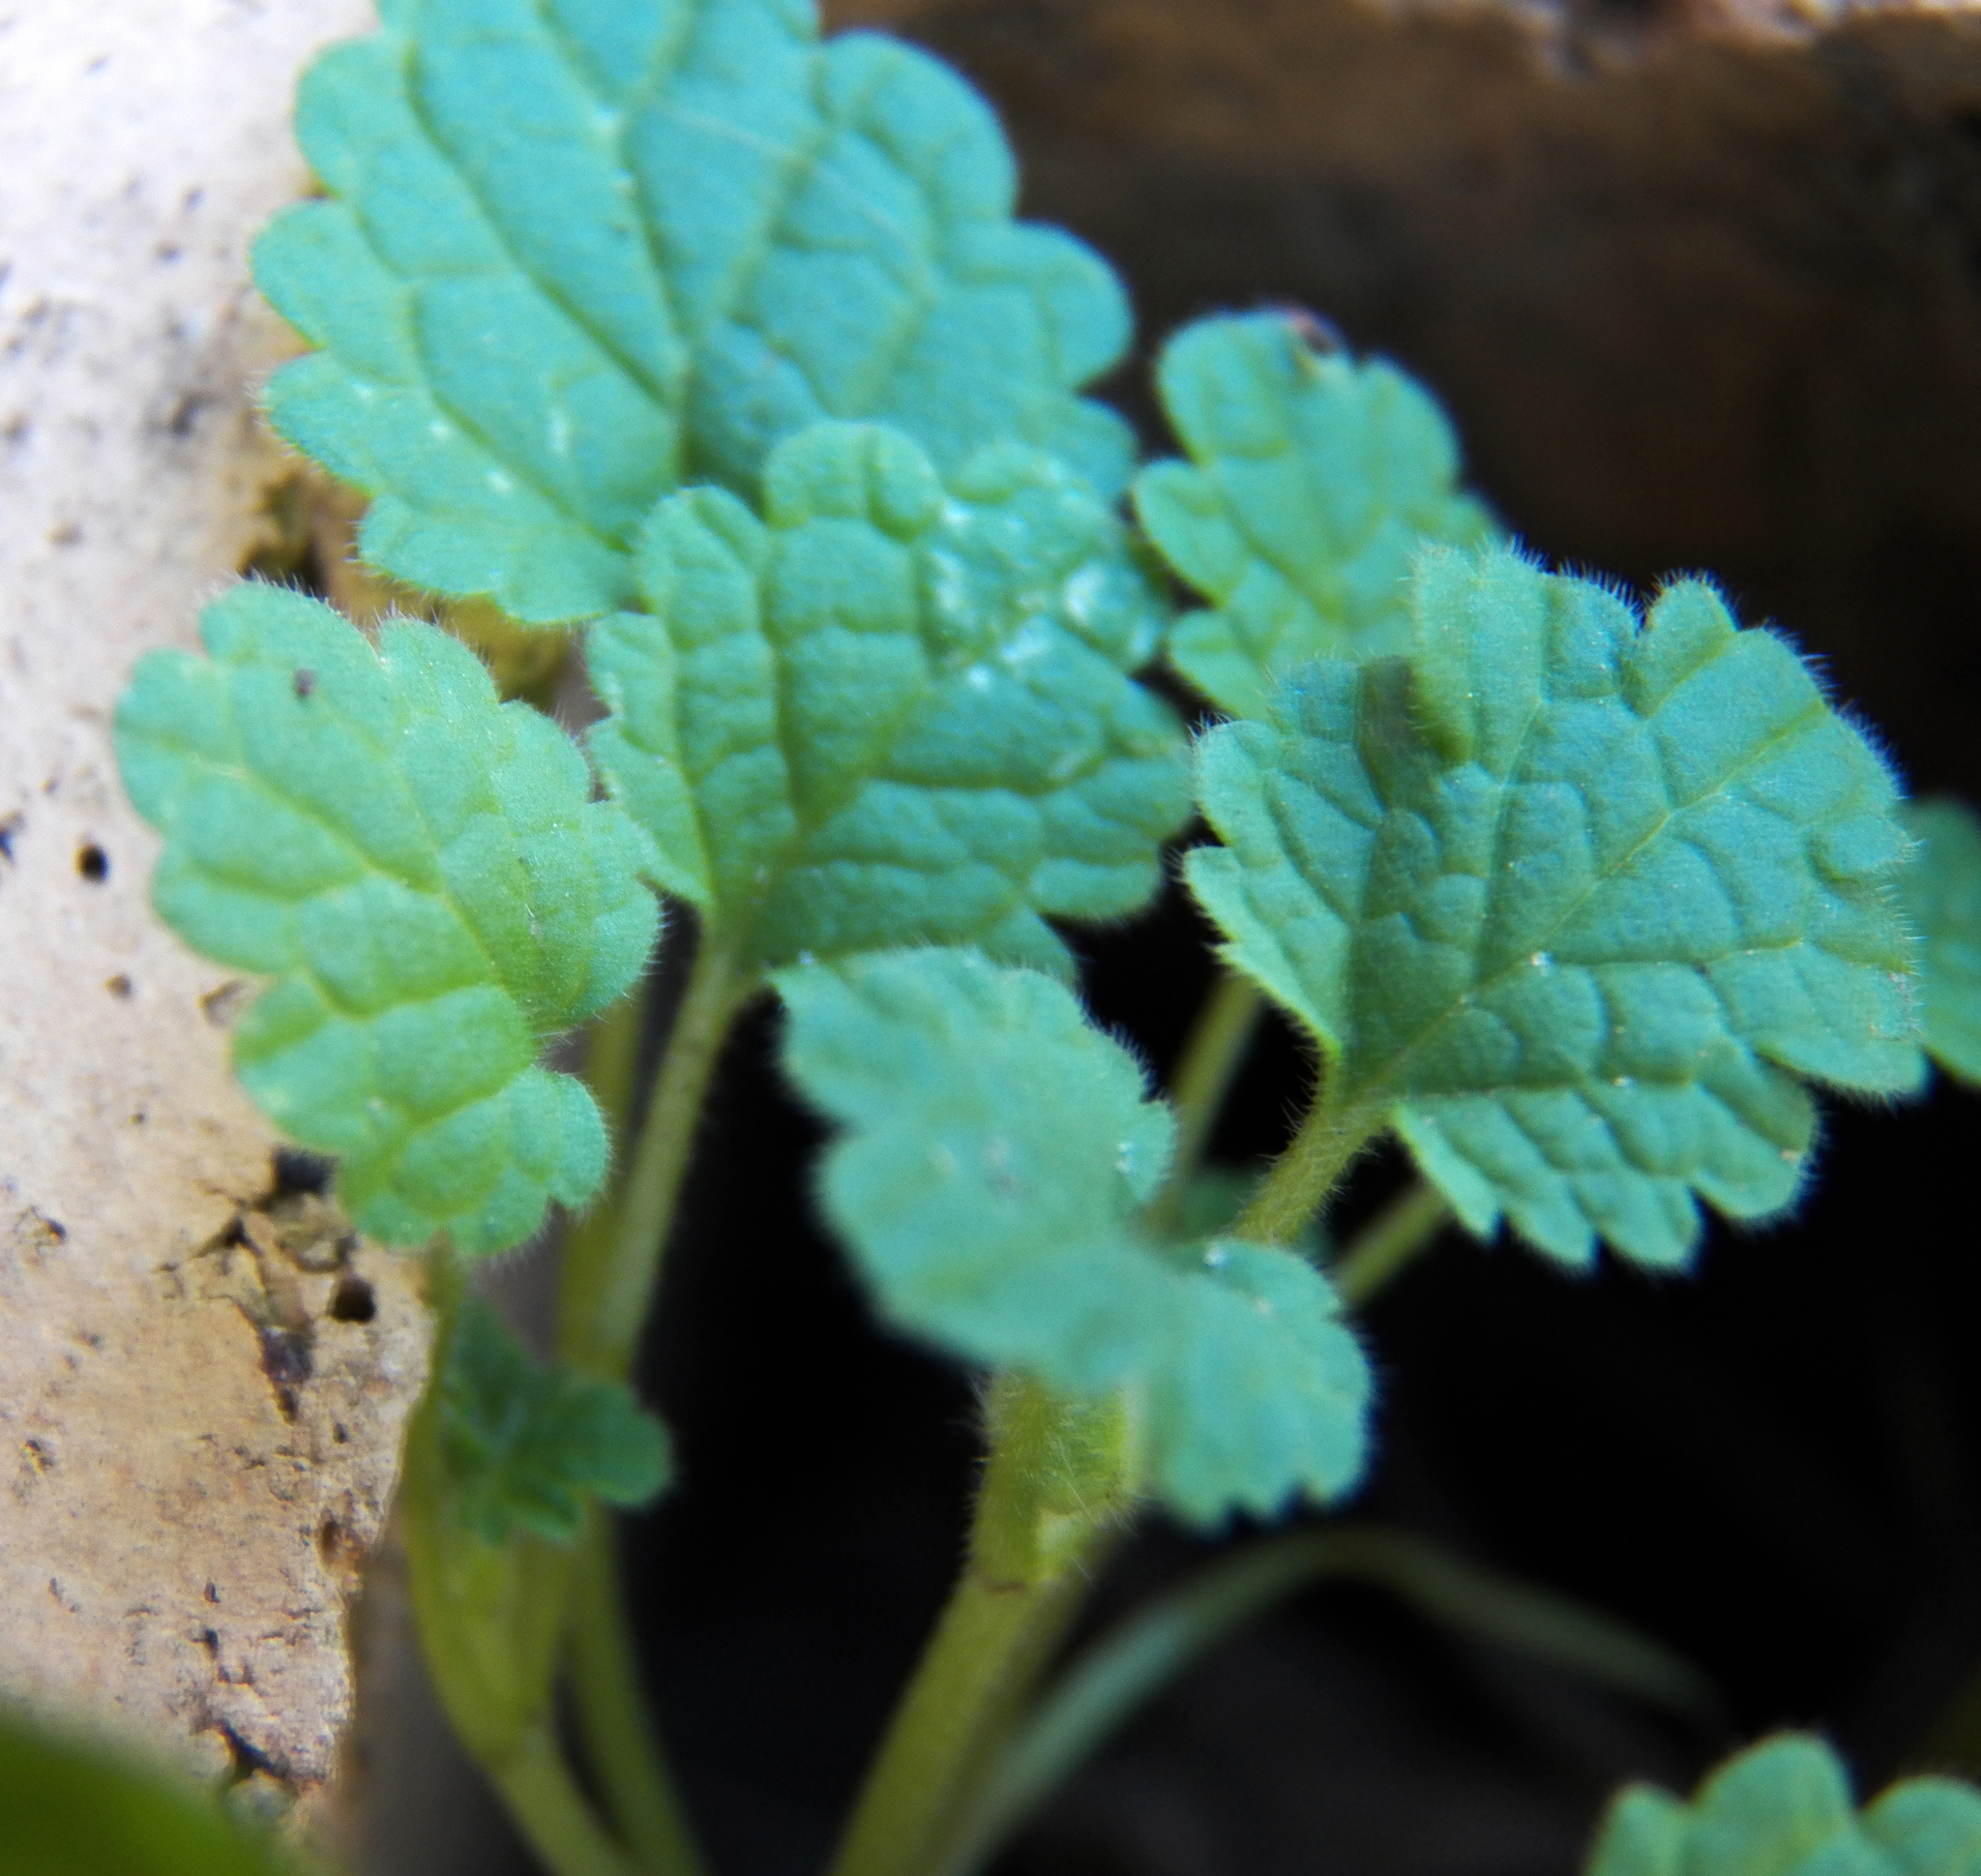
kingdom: Plantae
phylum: Tracheophyta
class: Magnoliopsida
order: Lamiales
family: Lamiaceae
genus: Lamium
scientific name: Lamium amplexicaule
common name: Henbit dead-nettle
